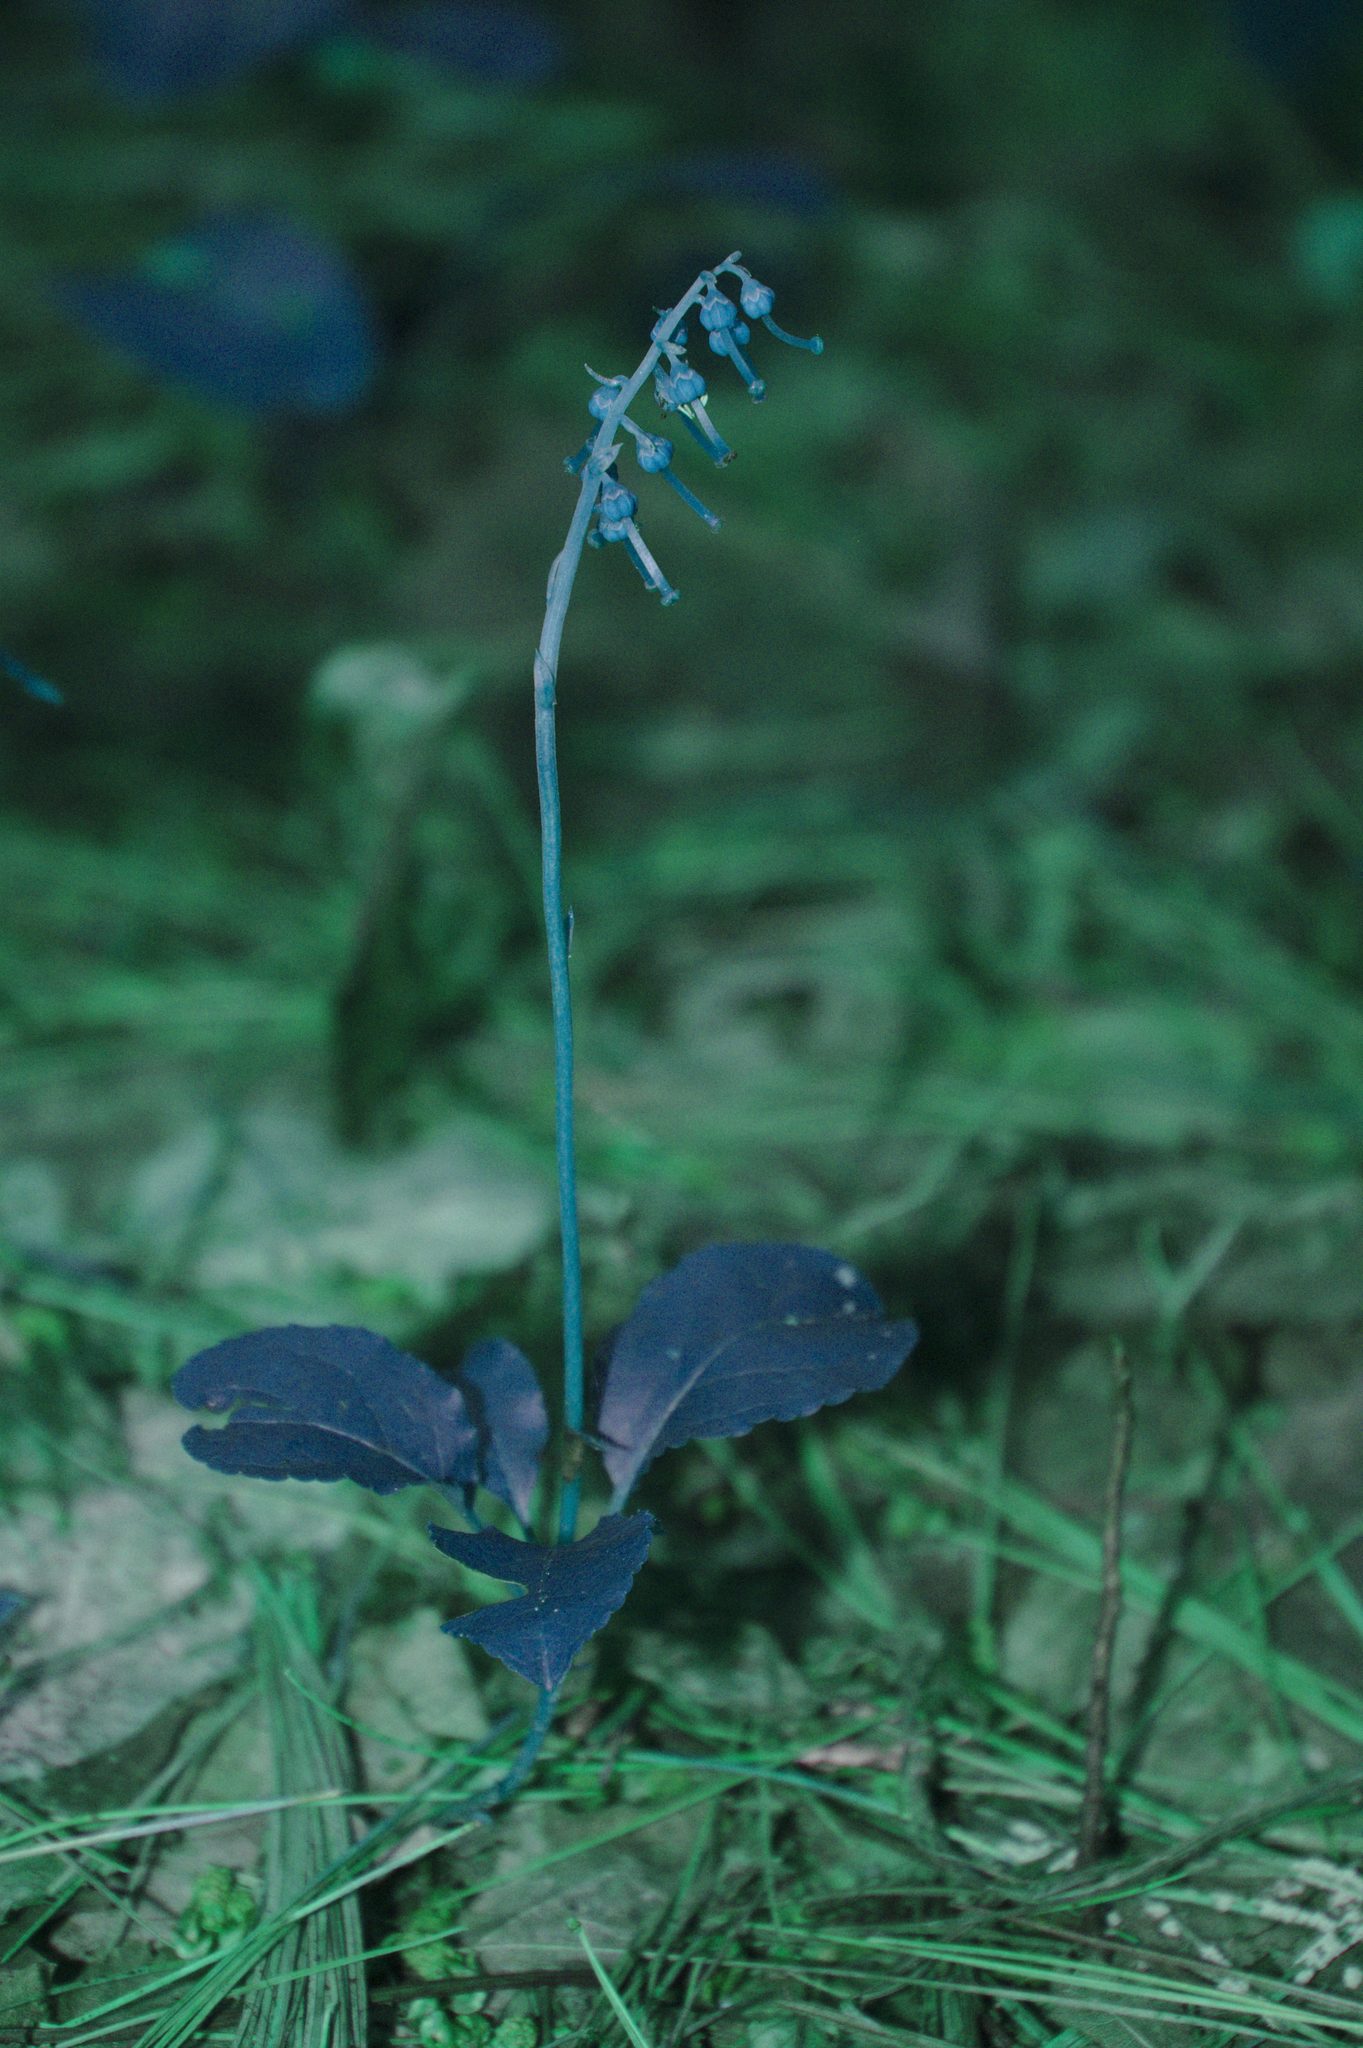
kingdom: Plantae
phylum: Tracheophyta
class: Magnoliopsida
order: Ericales
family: Ericaceae
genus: Orthilia
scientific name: Orthilia secunda
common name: One-sided orthilia
